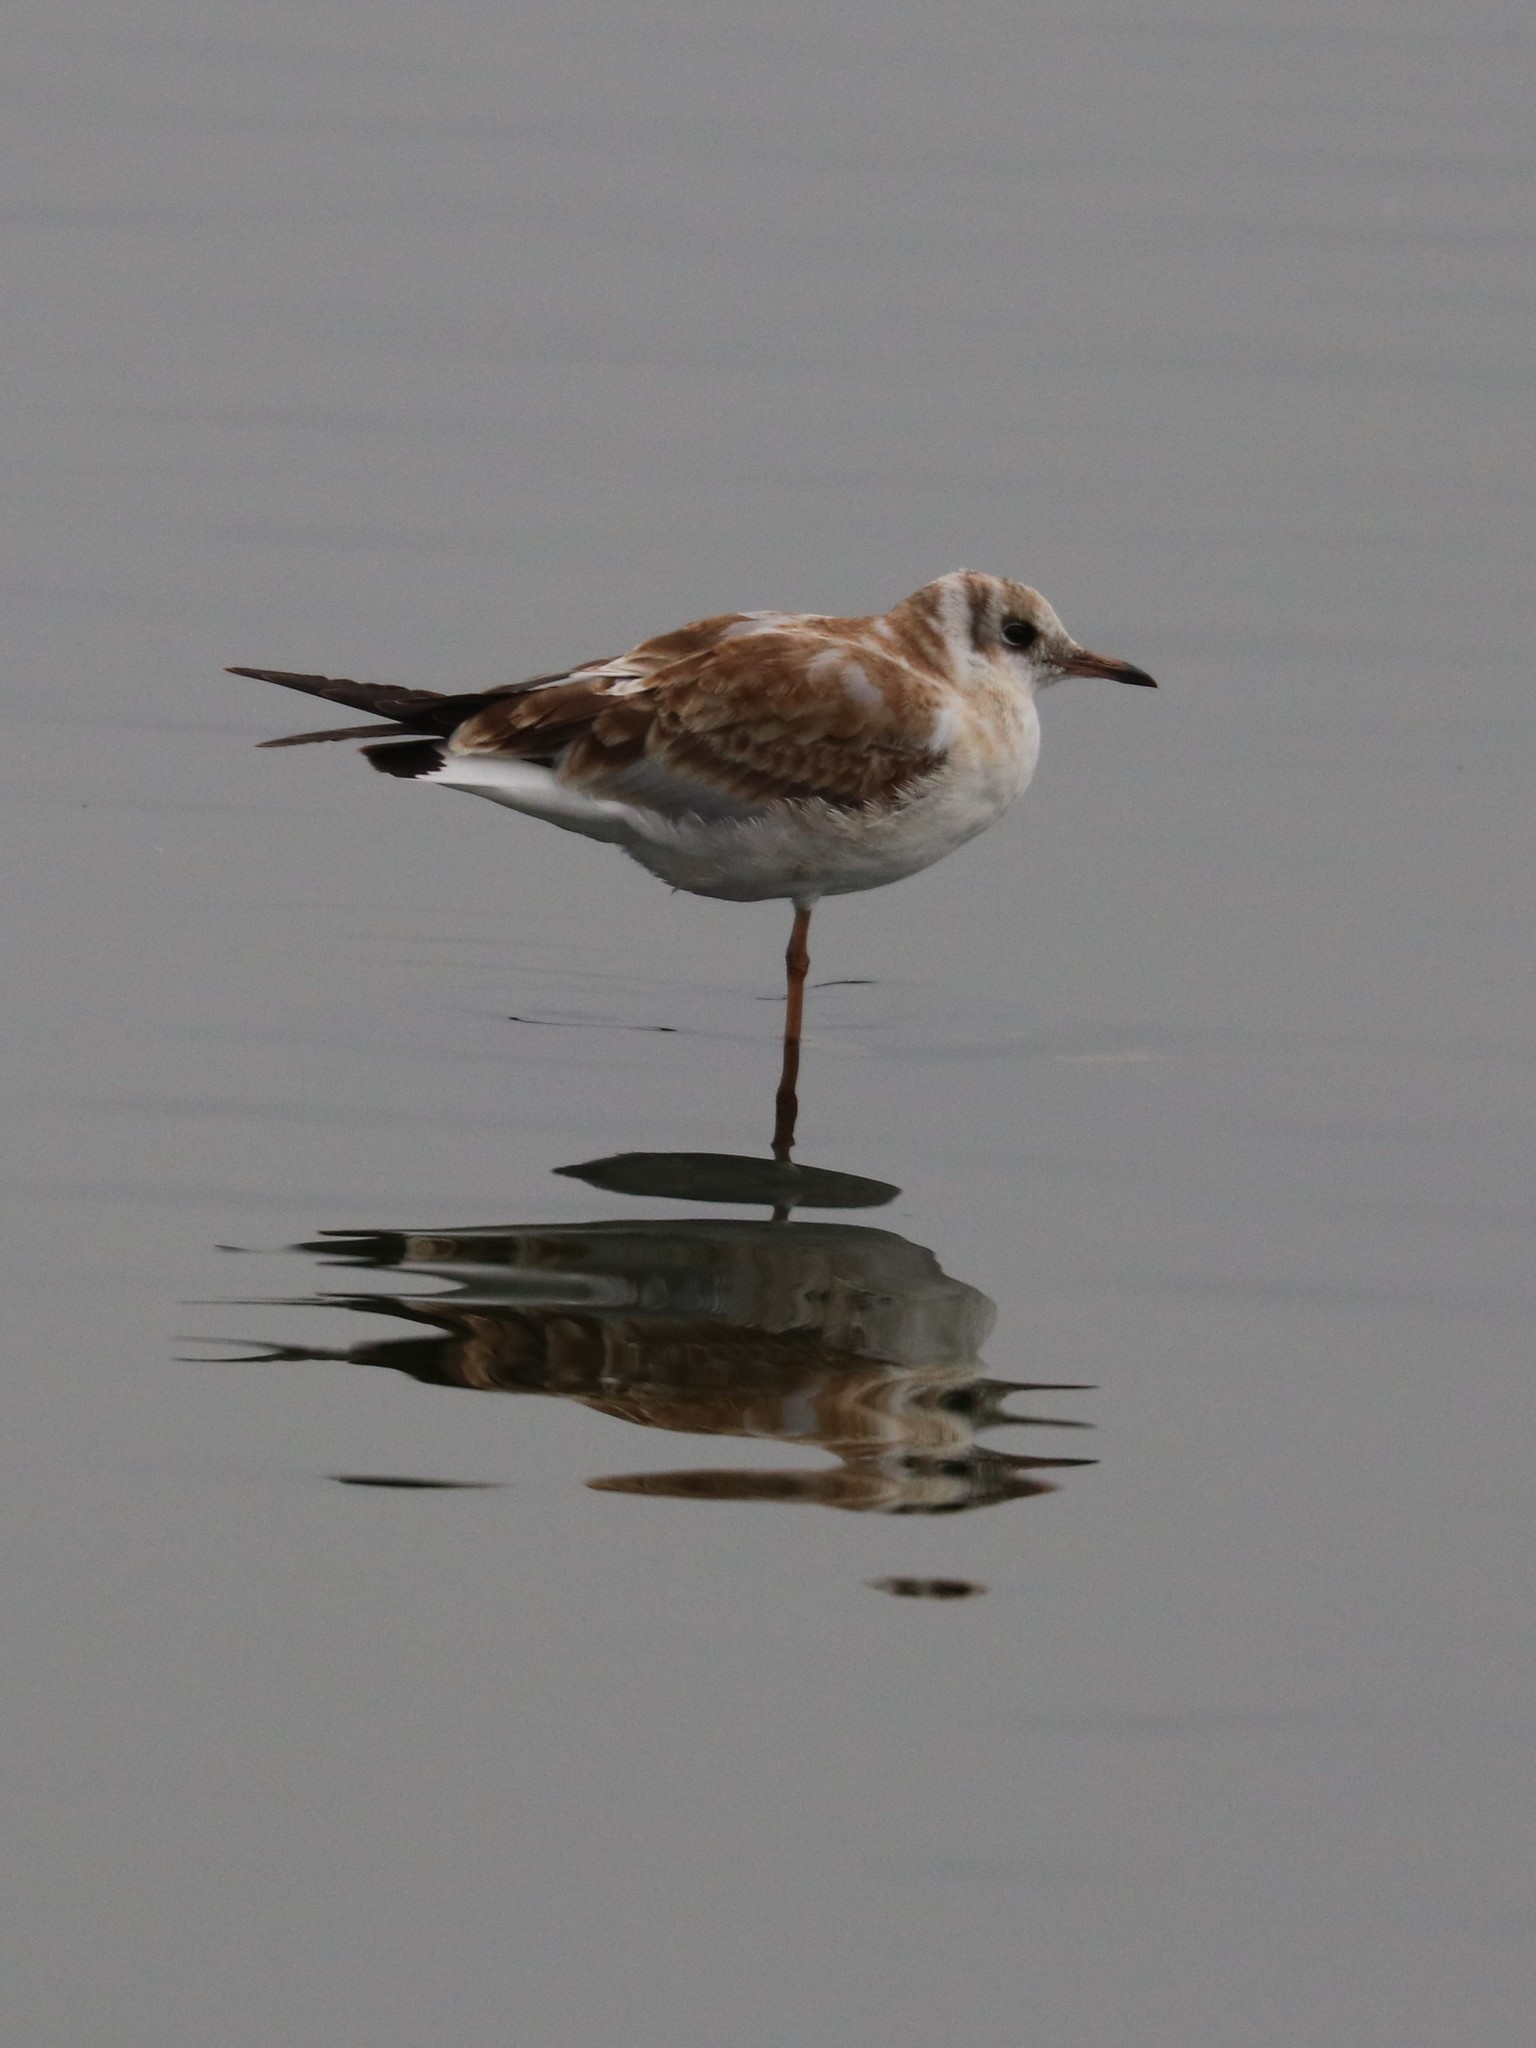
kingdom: Animalia
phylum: Chordata
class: Aves
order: Charadriiformes
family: Laridae
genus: Chroicocephalus
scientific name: Chroicocephalus ridibundus
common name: Black-headed gull
